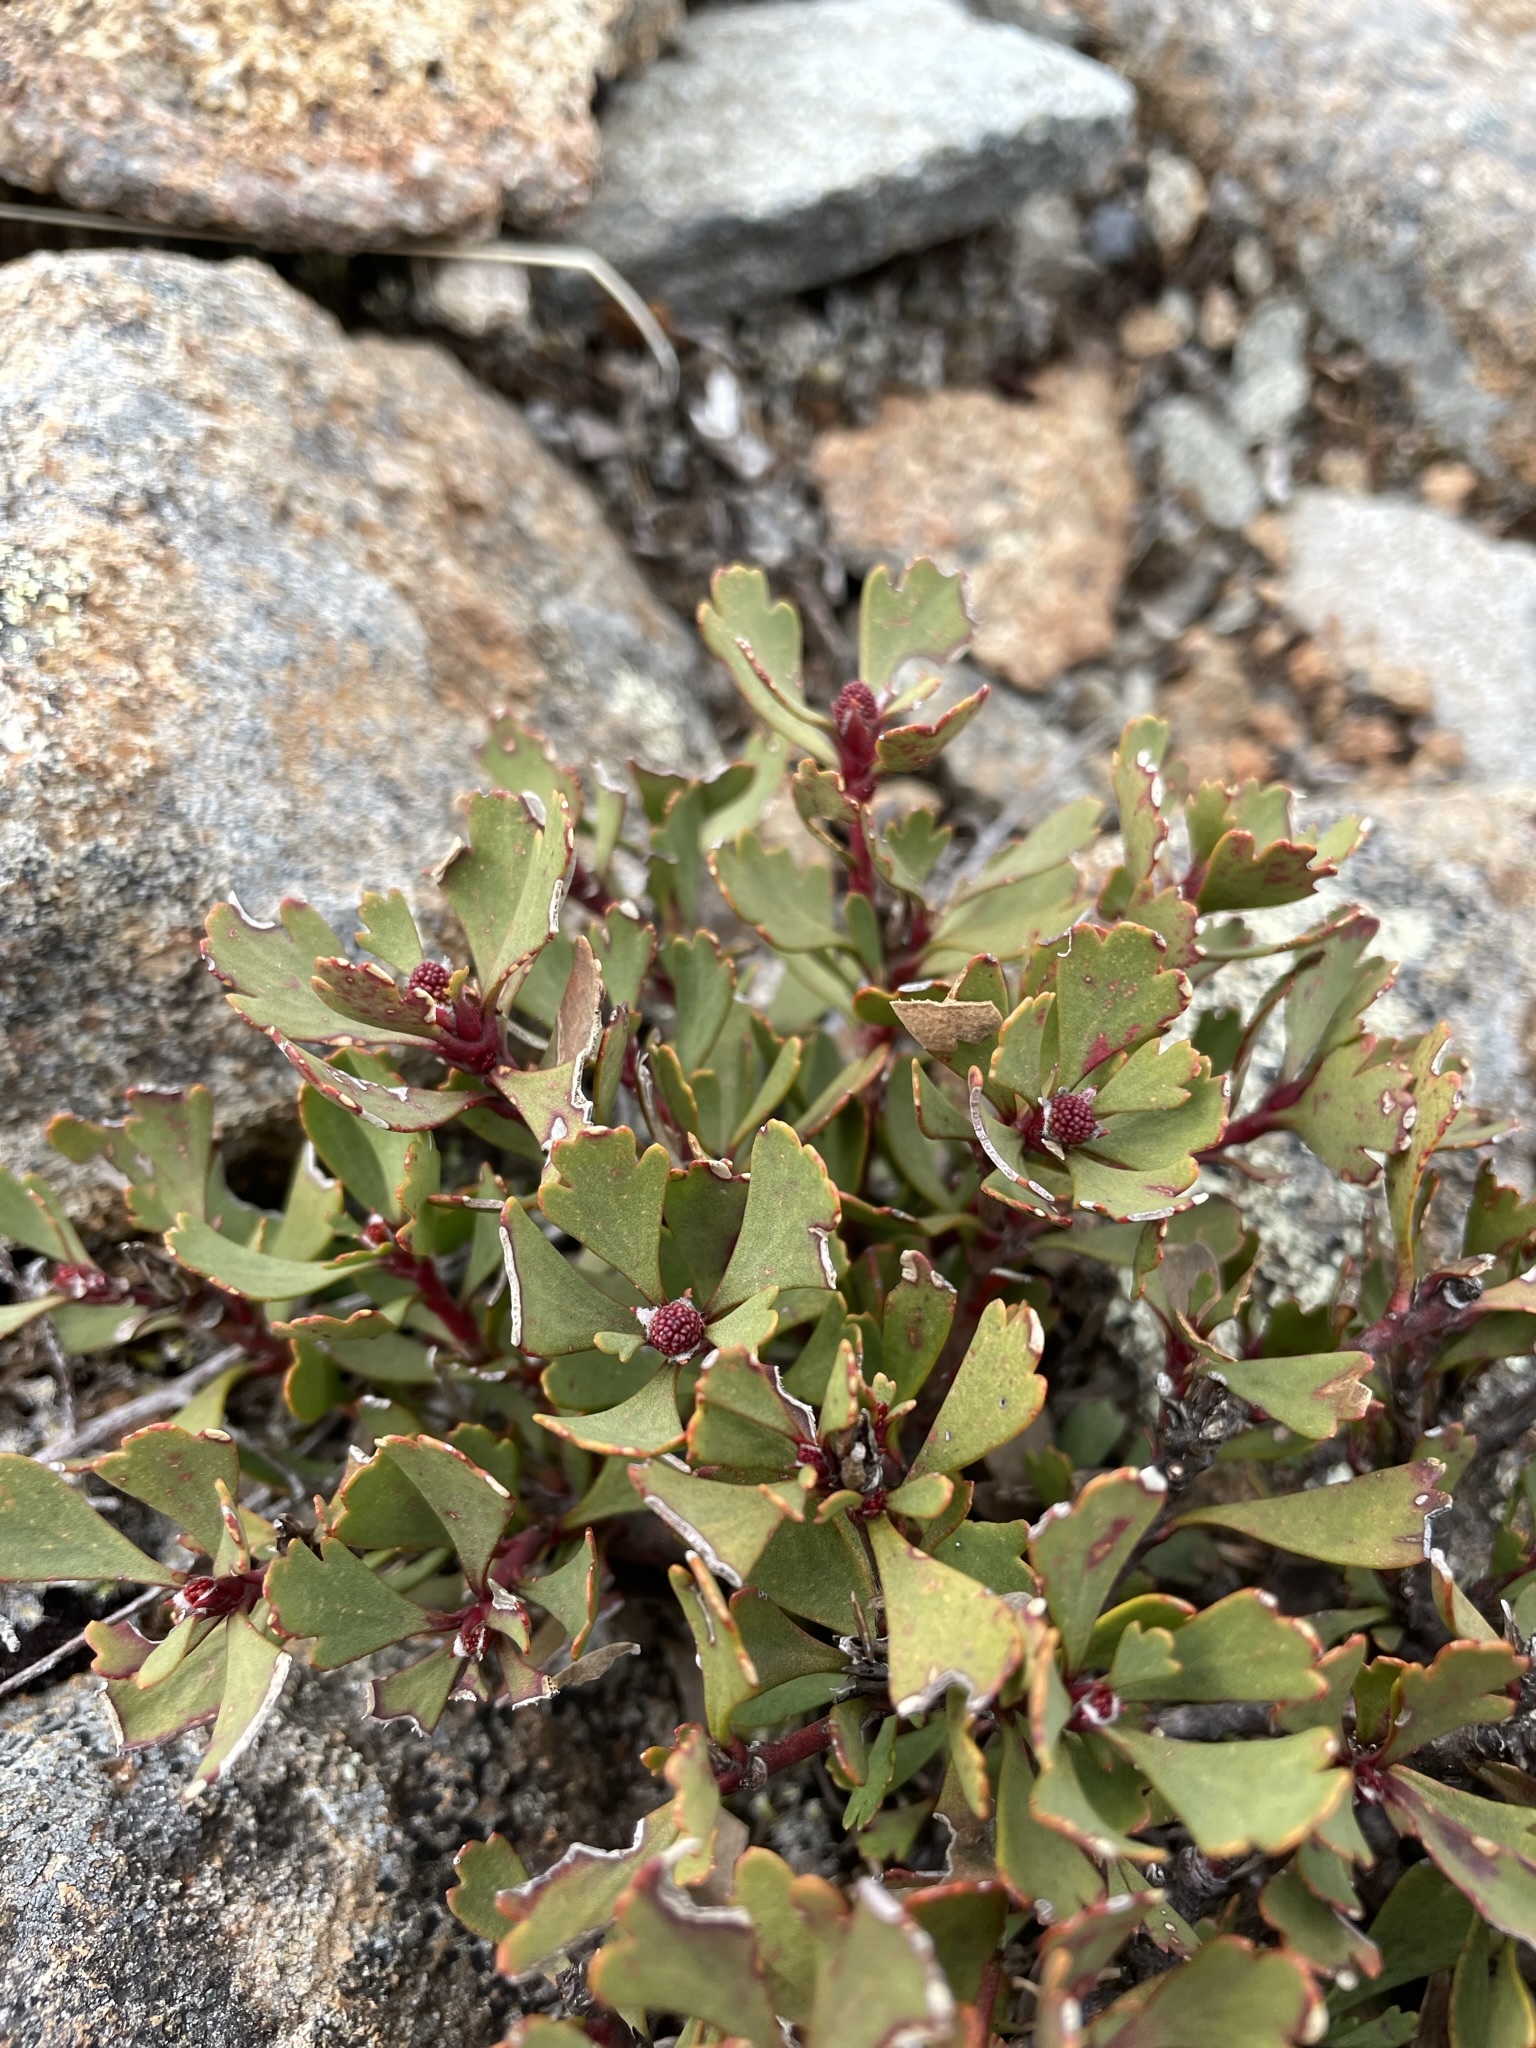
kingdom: Plantae
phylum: Tracheophyta
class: Magnoliopsida
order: Proteales
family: Proteaceae
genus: Bellendena
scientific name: Bellendena montana
